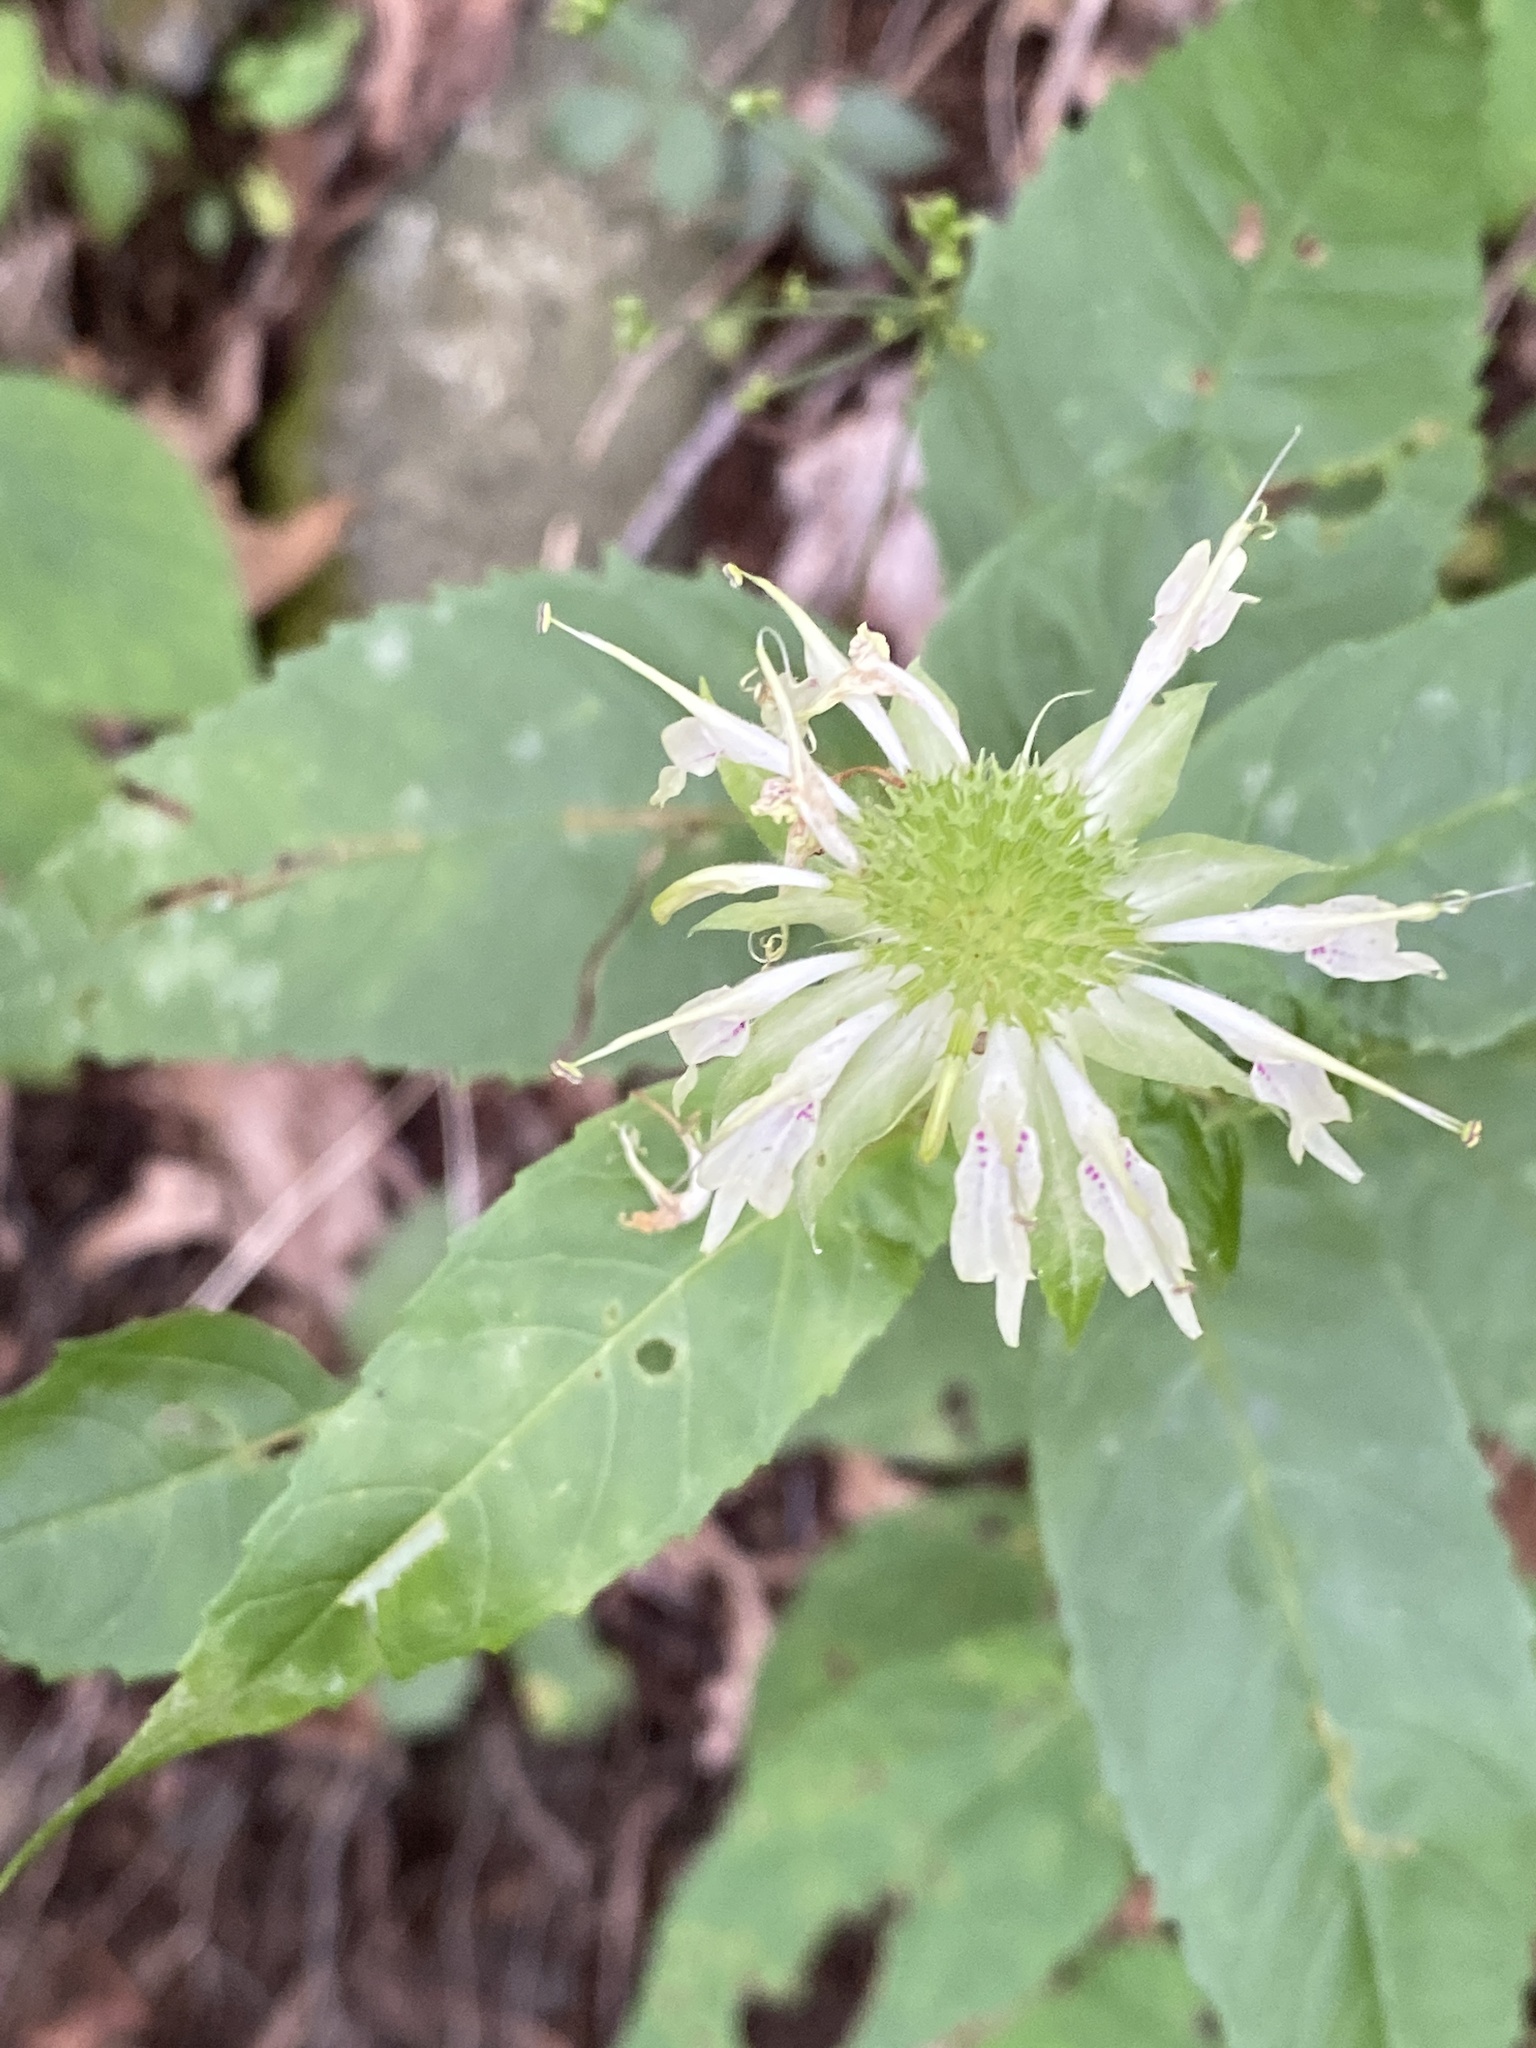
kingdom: Plantae
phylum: Tracheophyta
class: Magnoliopsida
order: Lamiales
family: Lamiaceae
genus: Monarda
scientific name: Monarda clinopodia
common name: Basil beebalm
